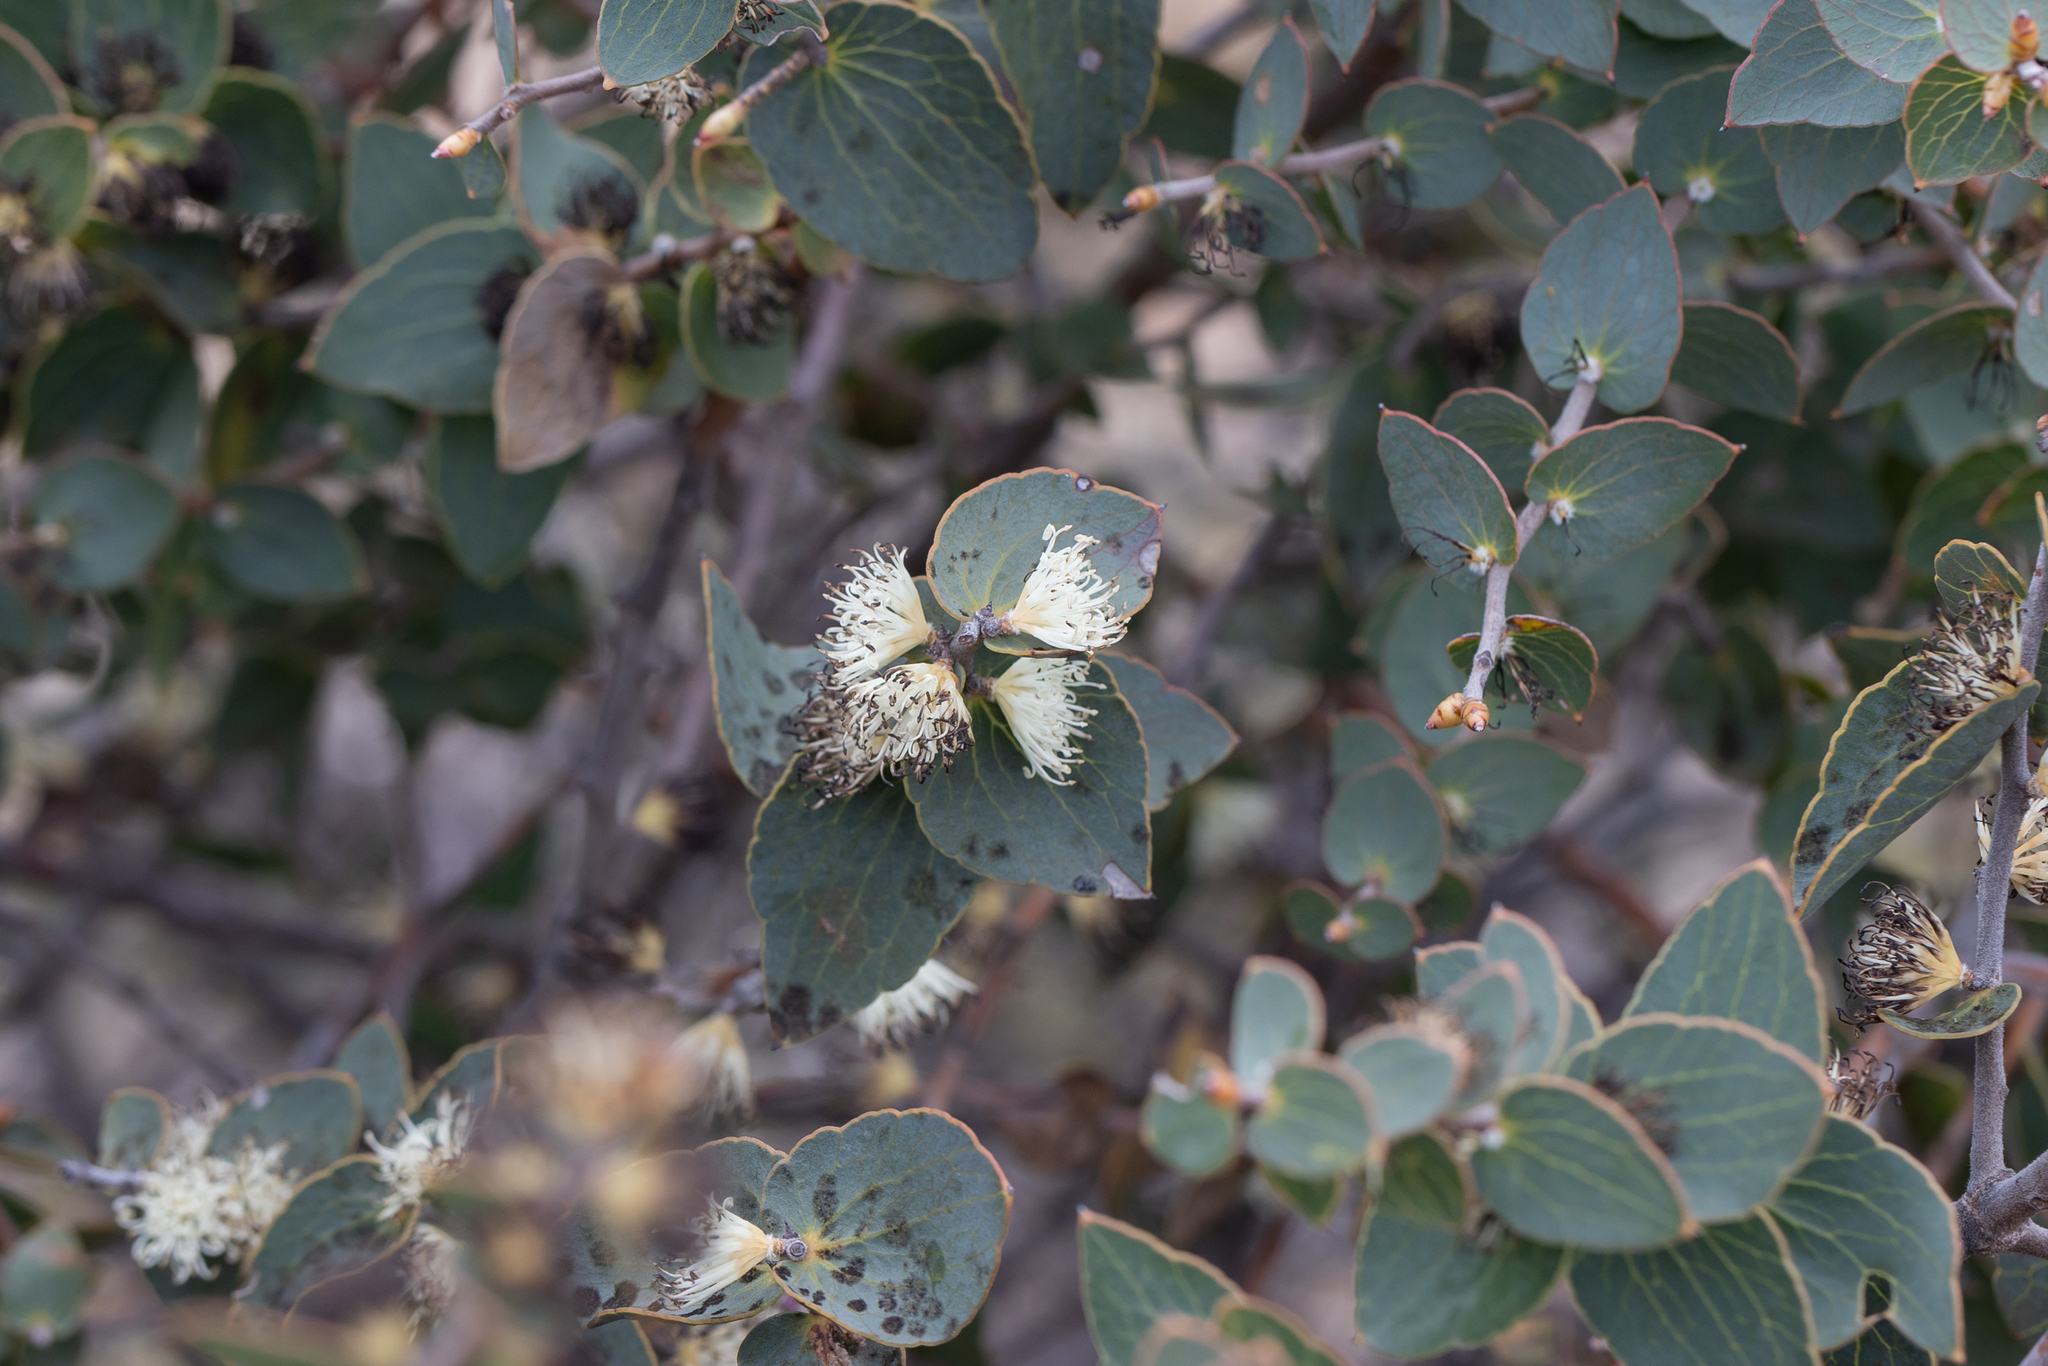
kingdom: Plantae
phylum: Tracheophyta
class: Magnoliopsida
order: Proteales
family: Proteaceae
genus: Hakea
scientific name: Hakea ferruginea
